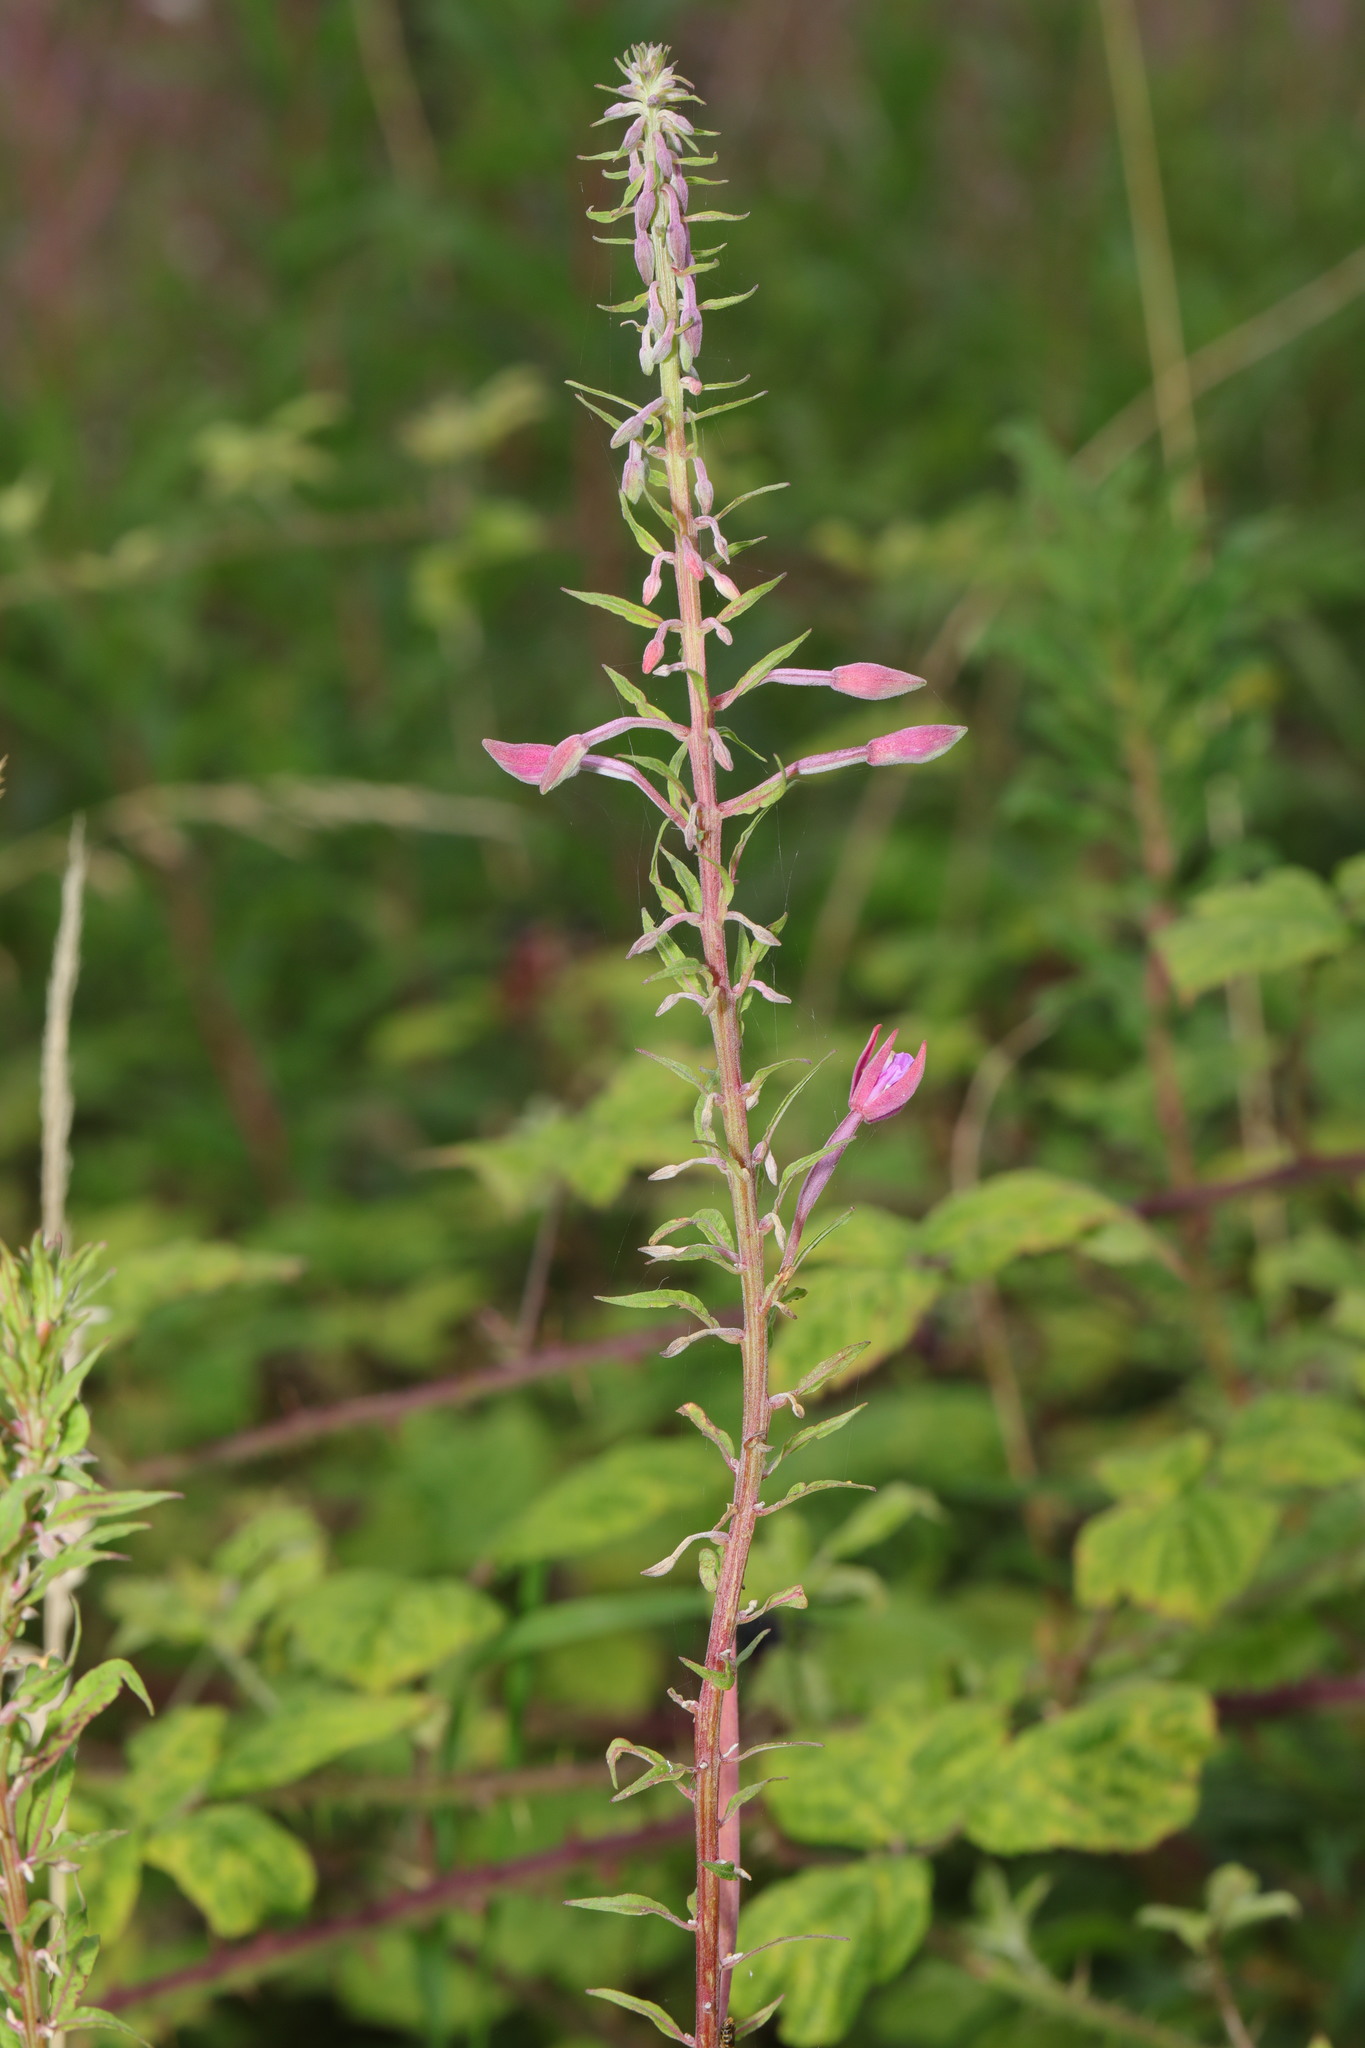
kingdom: Plantae
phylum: Tracheophyta
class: Magnoliopsida
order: Myrtales
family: Onagraceae
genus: Chamaenerion
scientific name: Chamaenerion angustifolium
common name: Fireweed
